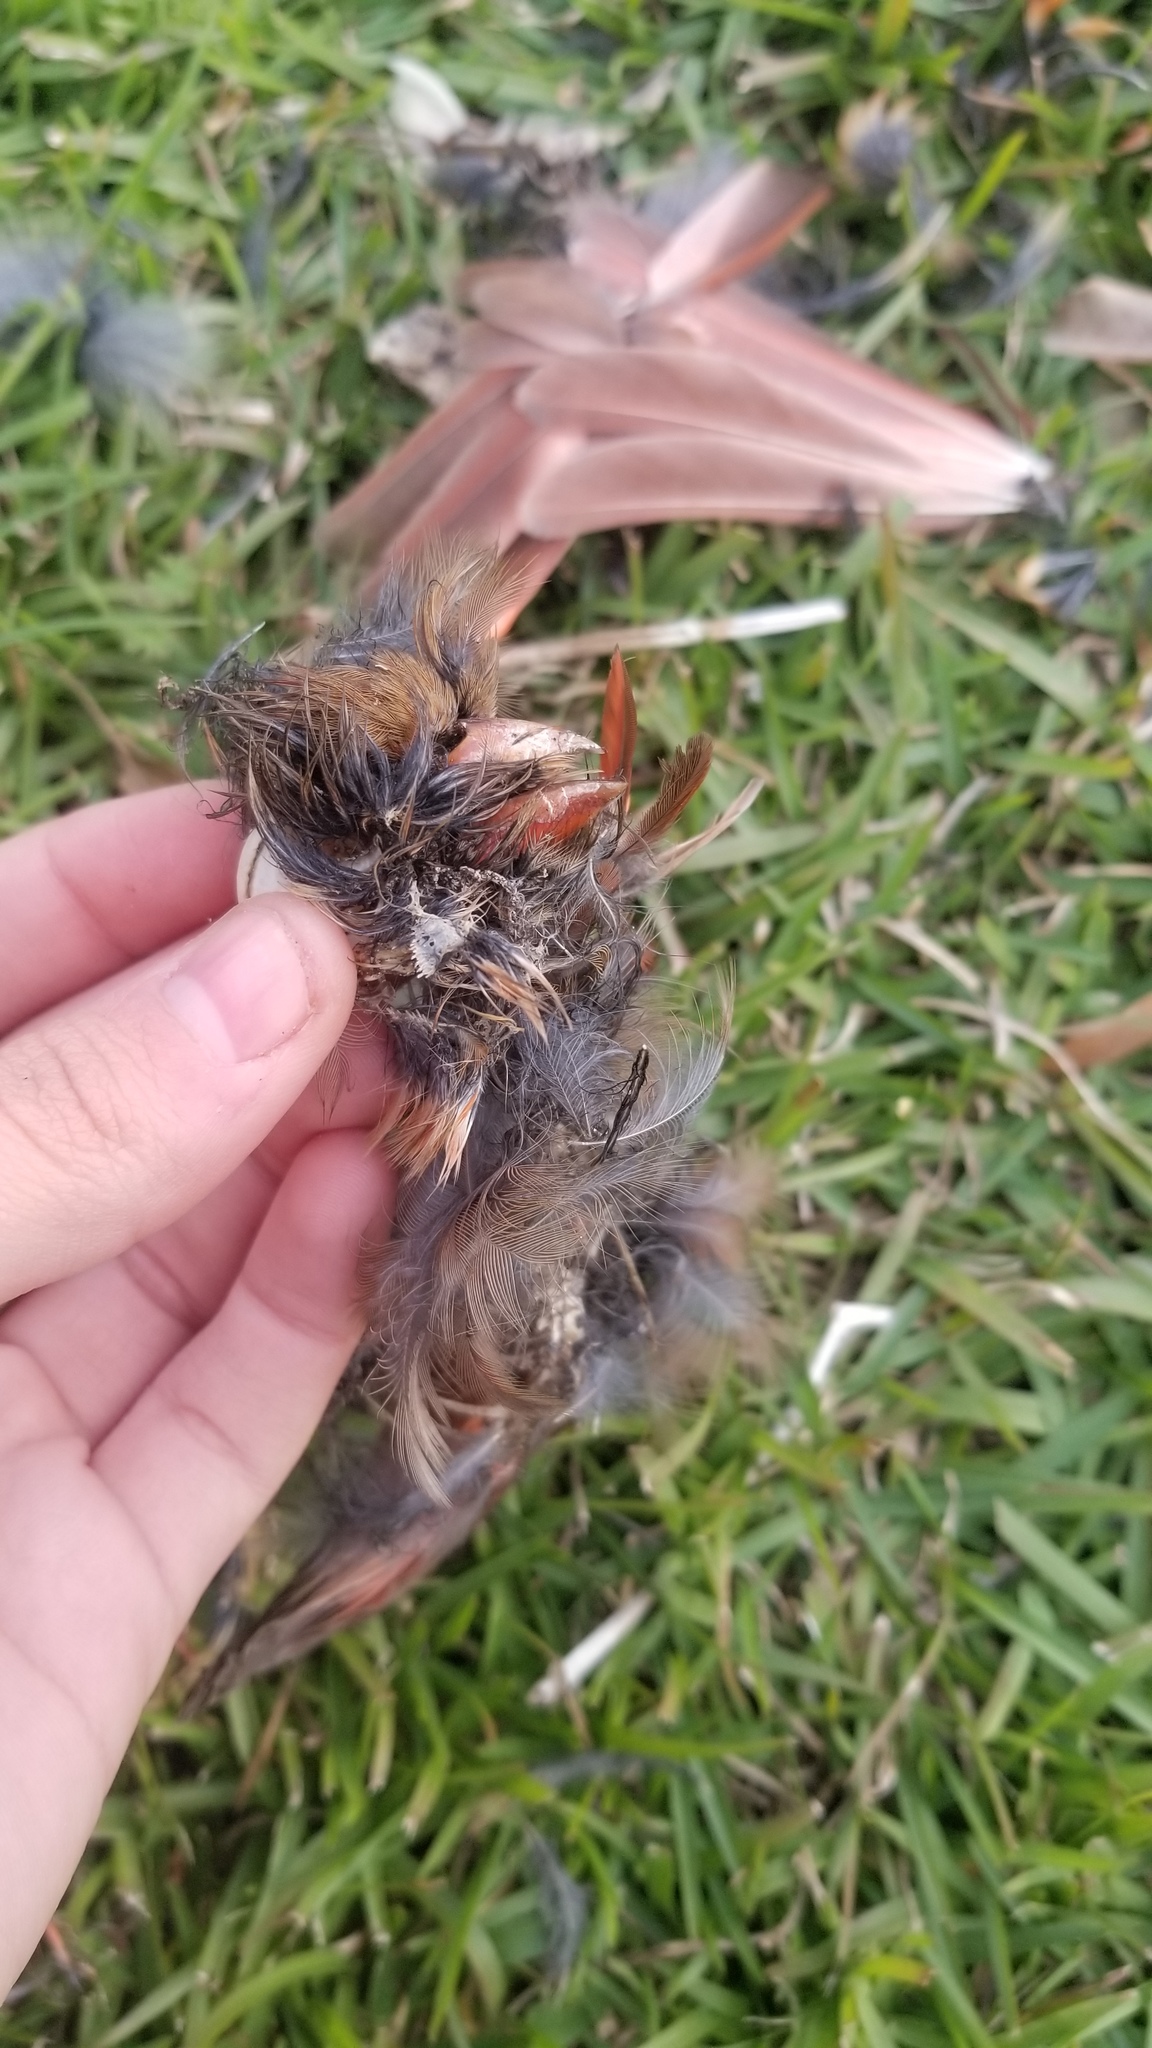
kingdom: Animalia
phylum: Chordata
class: Aves
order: Passeriformes
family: Cardinalidae
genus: Cardinalis
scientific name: Cardinalis cardinalis
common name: Northern cardinal
